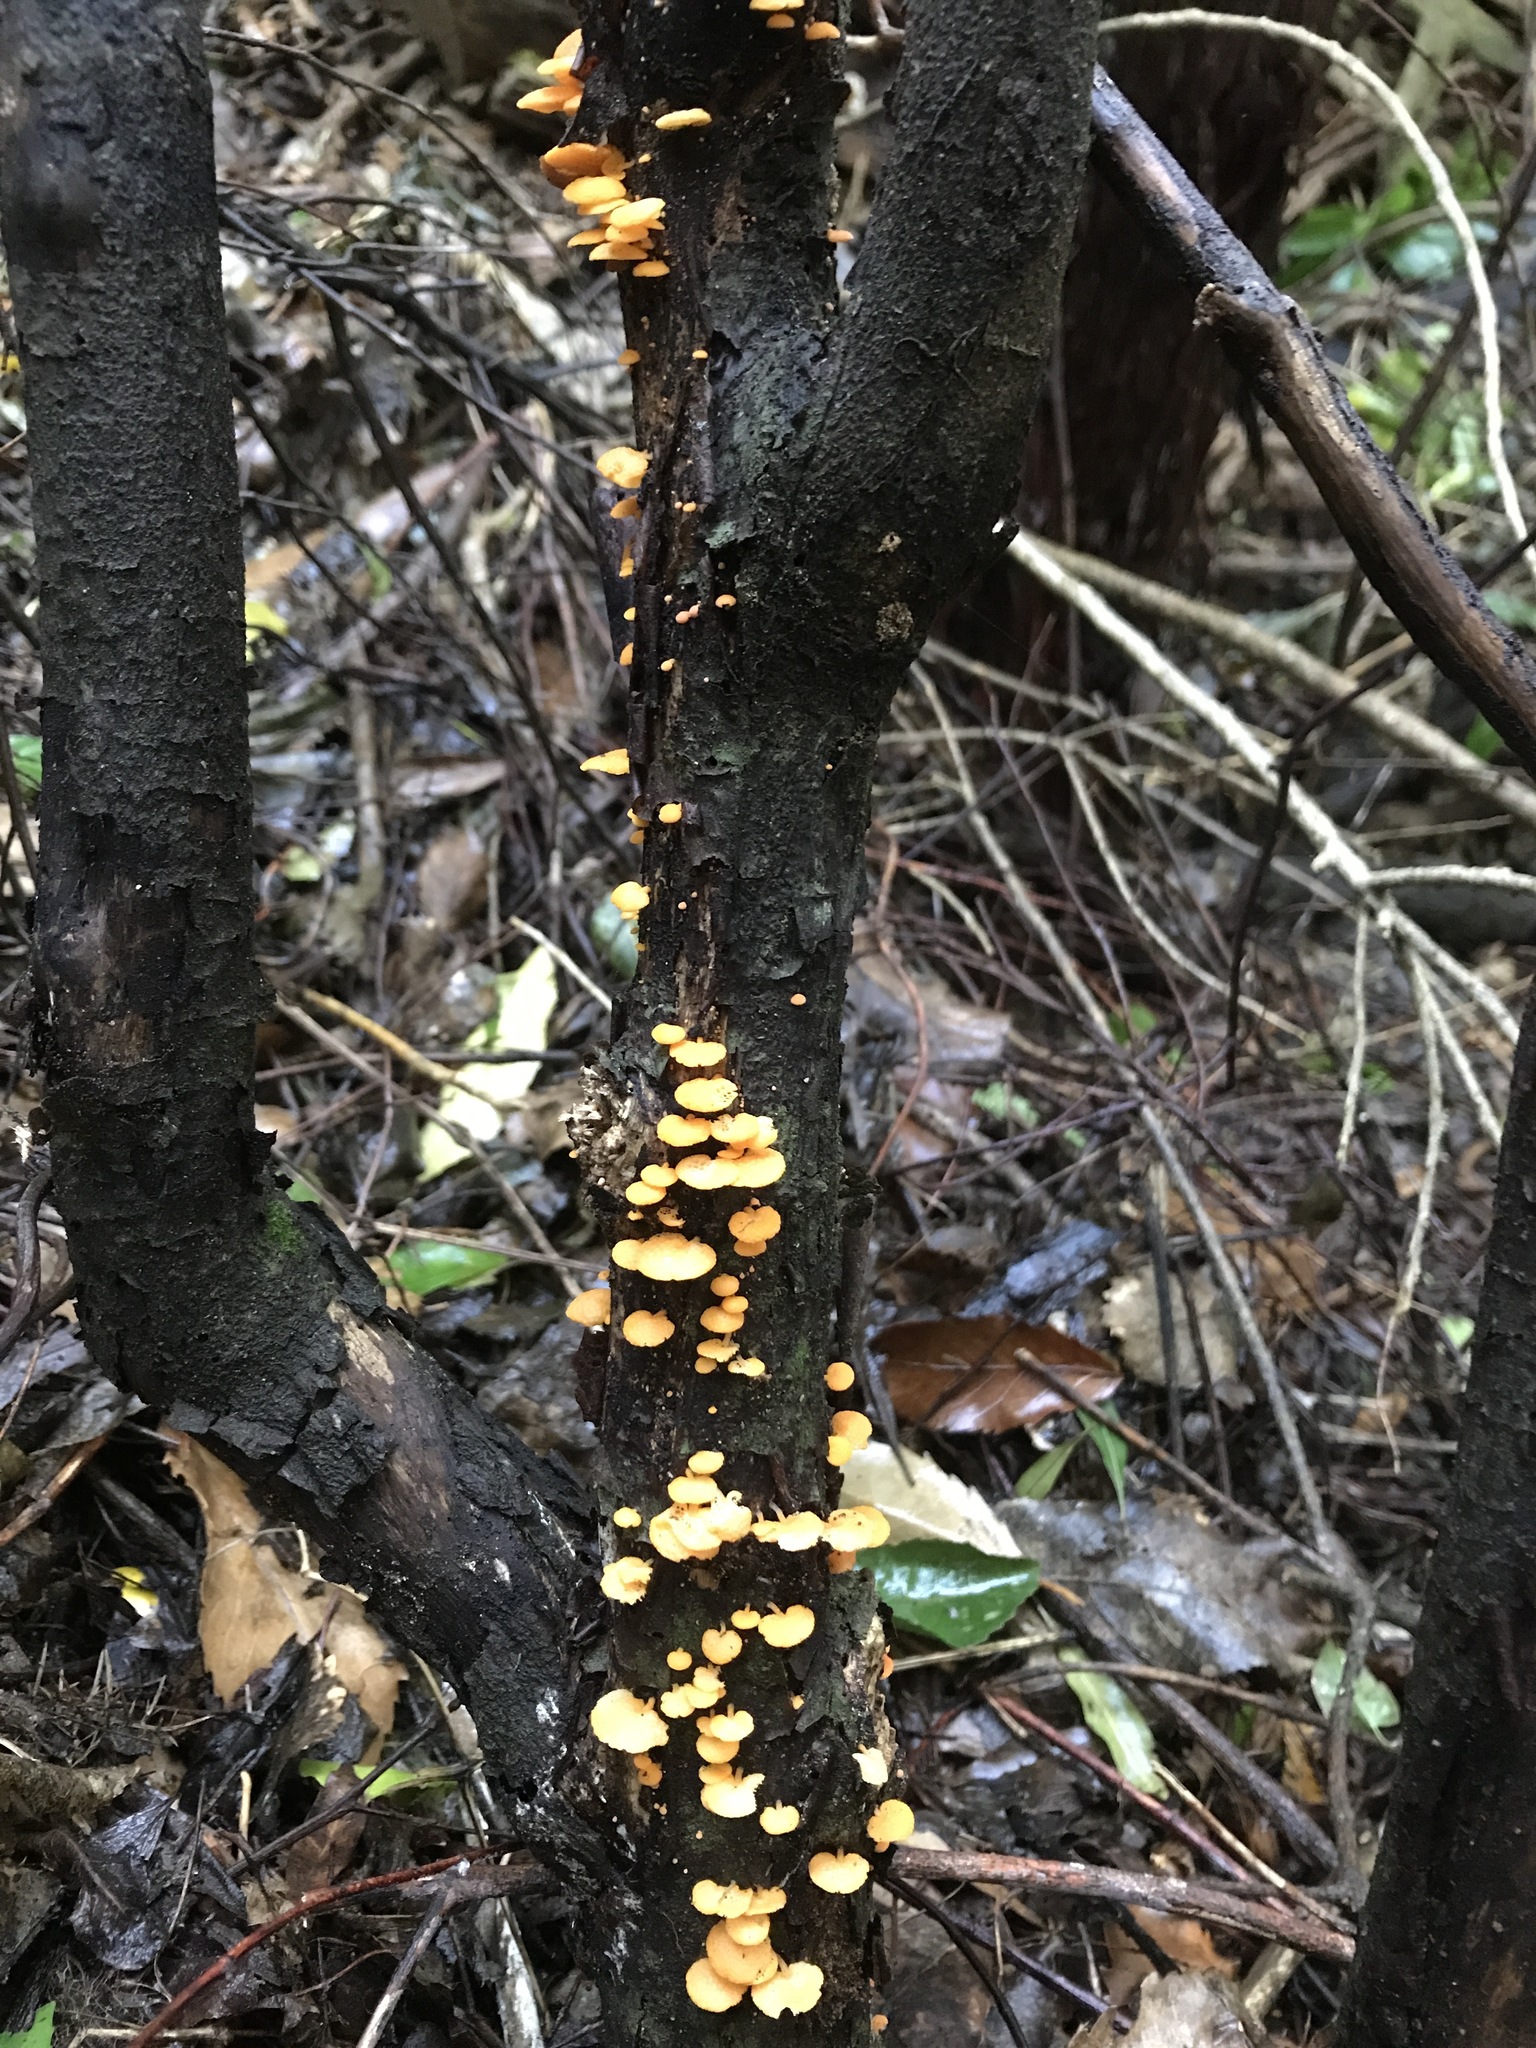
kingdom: Fungi
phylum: Basidiomycota
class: Agaricomycetes
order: Agaricales
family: Mycenaceae
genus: Favolaschia
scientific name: Favolaschia claudopus
